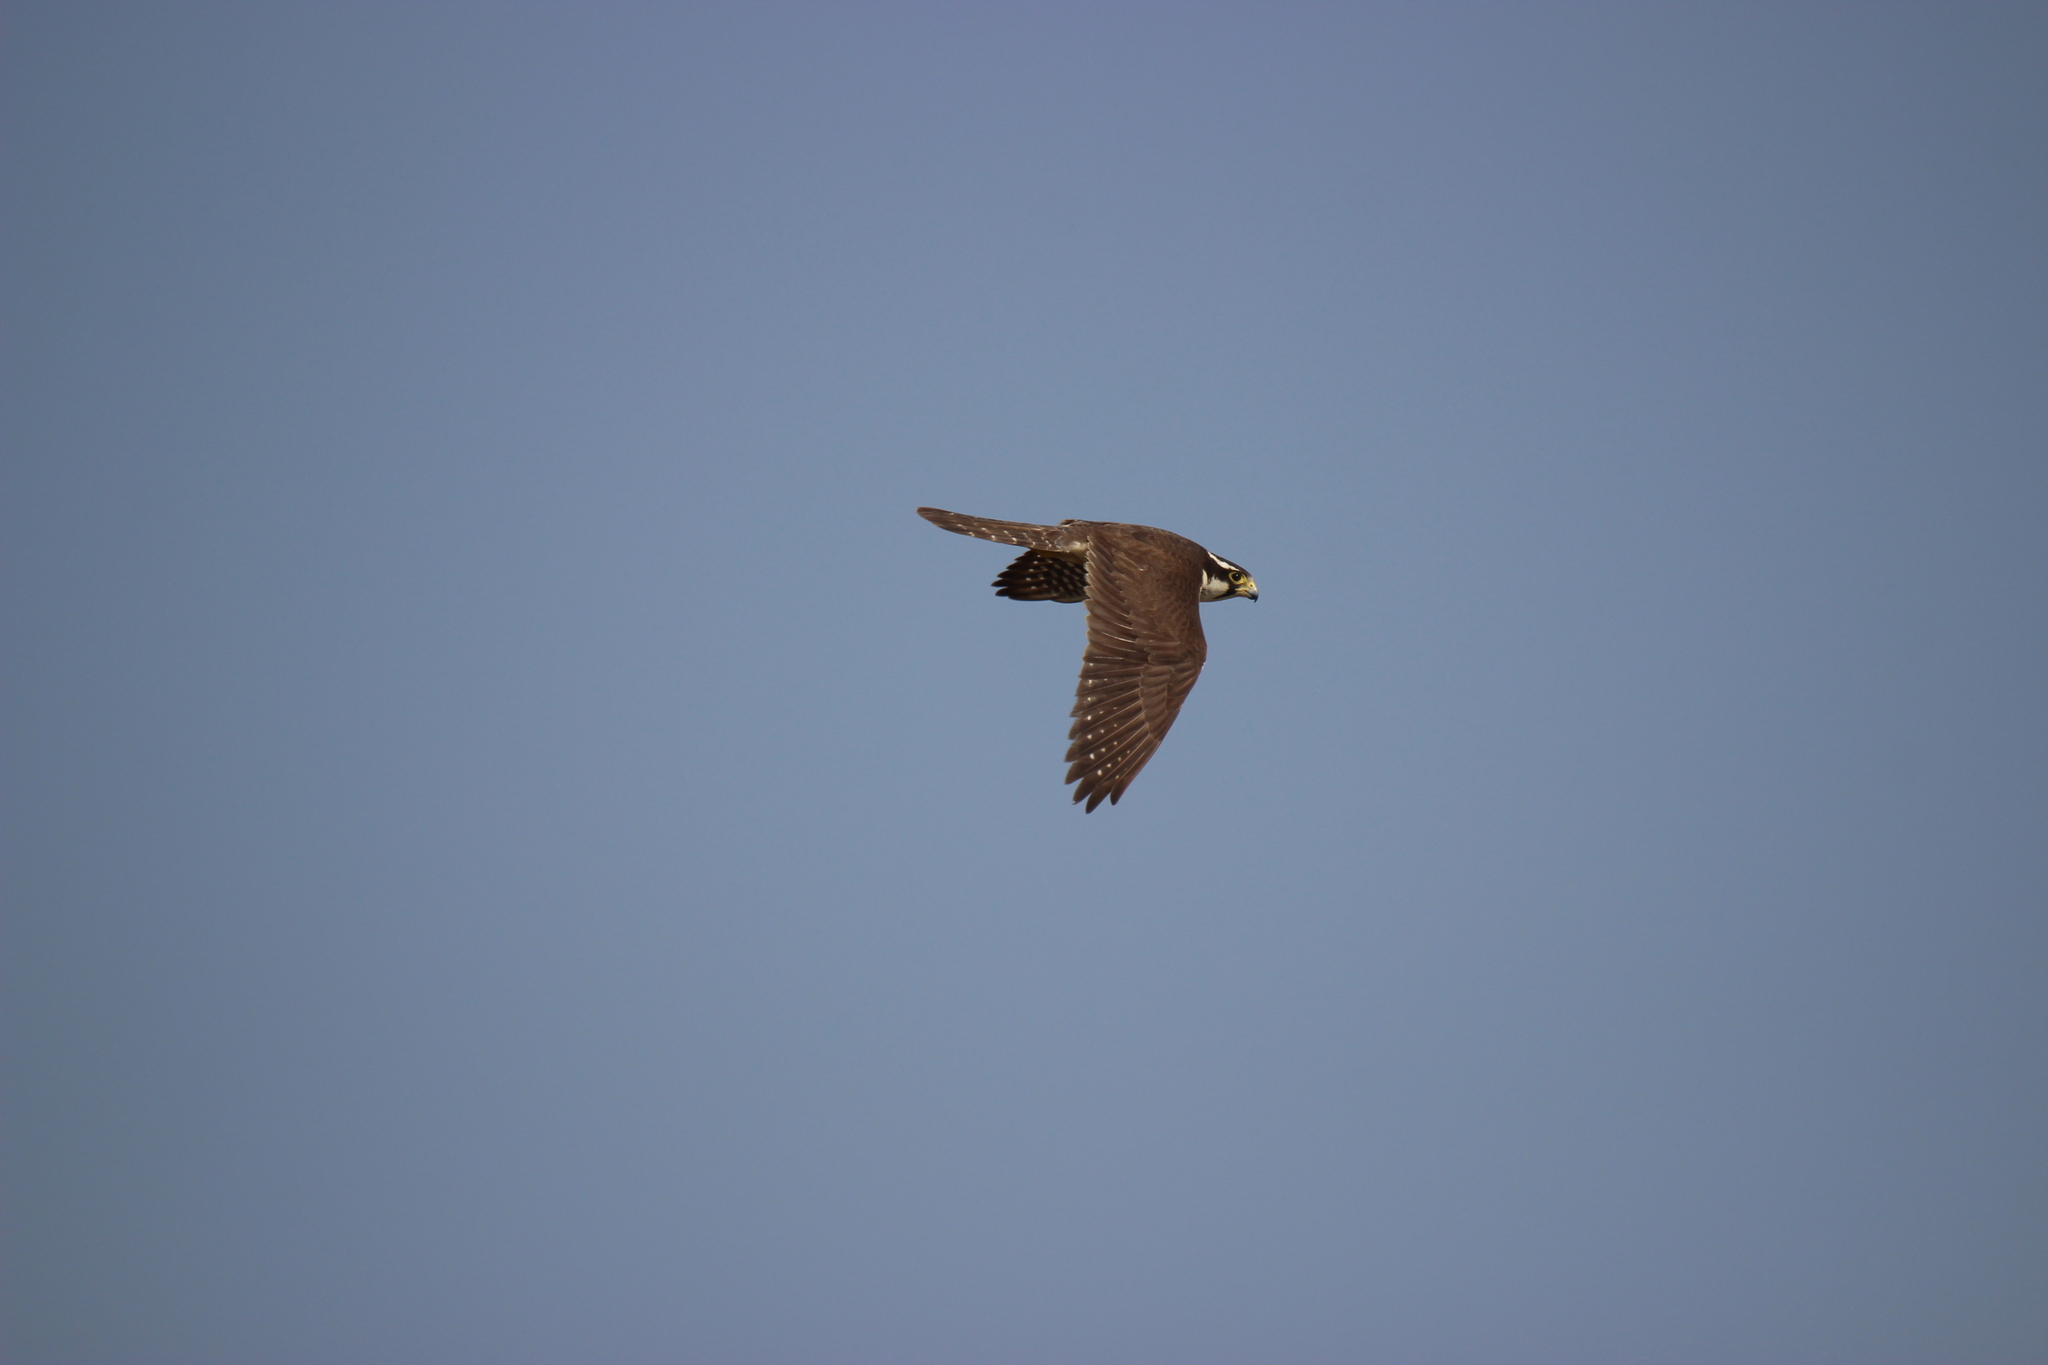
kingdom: Animalia
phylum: Chordata
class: Aves
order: Falconiformes
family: Falconidae
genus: Falco
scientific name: Falco femoralis
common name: Aplomado falcon
